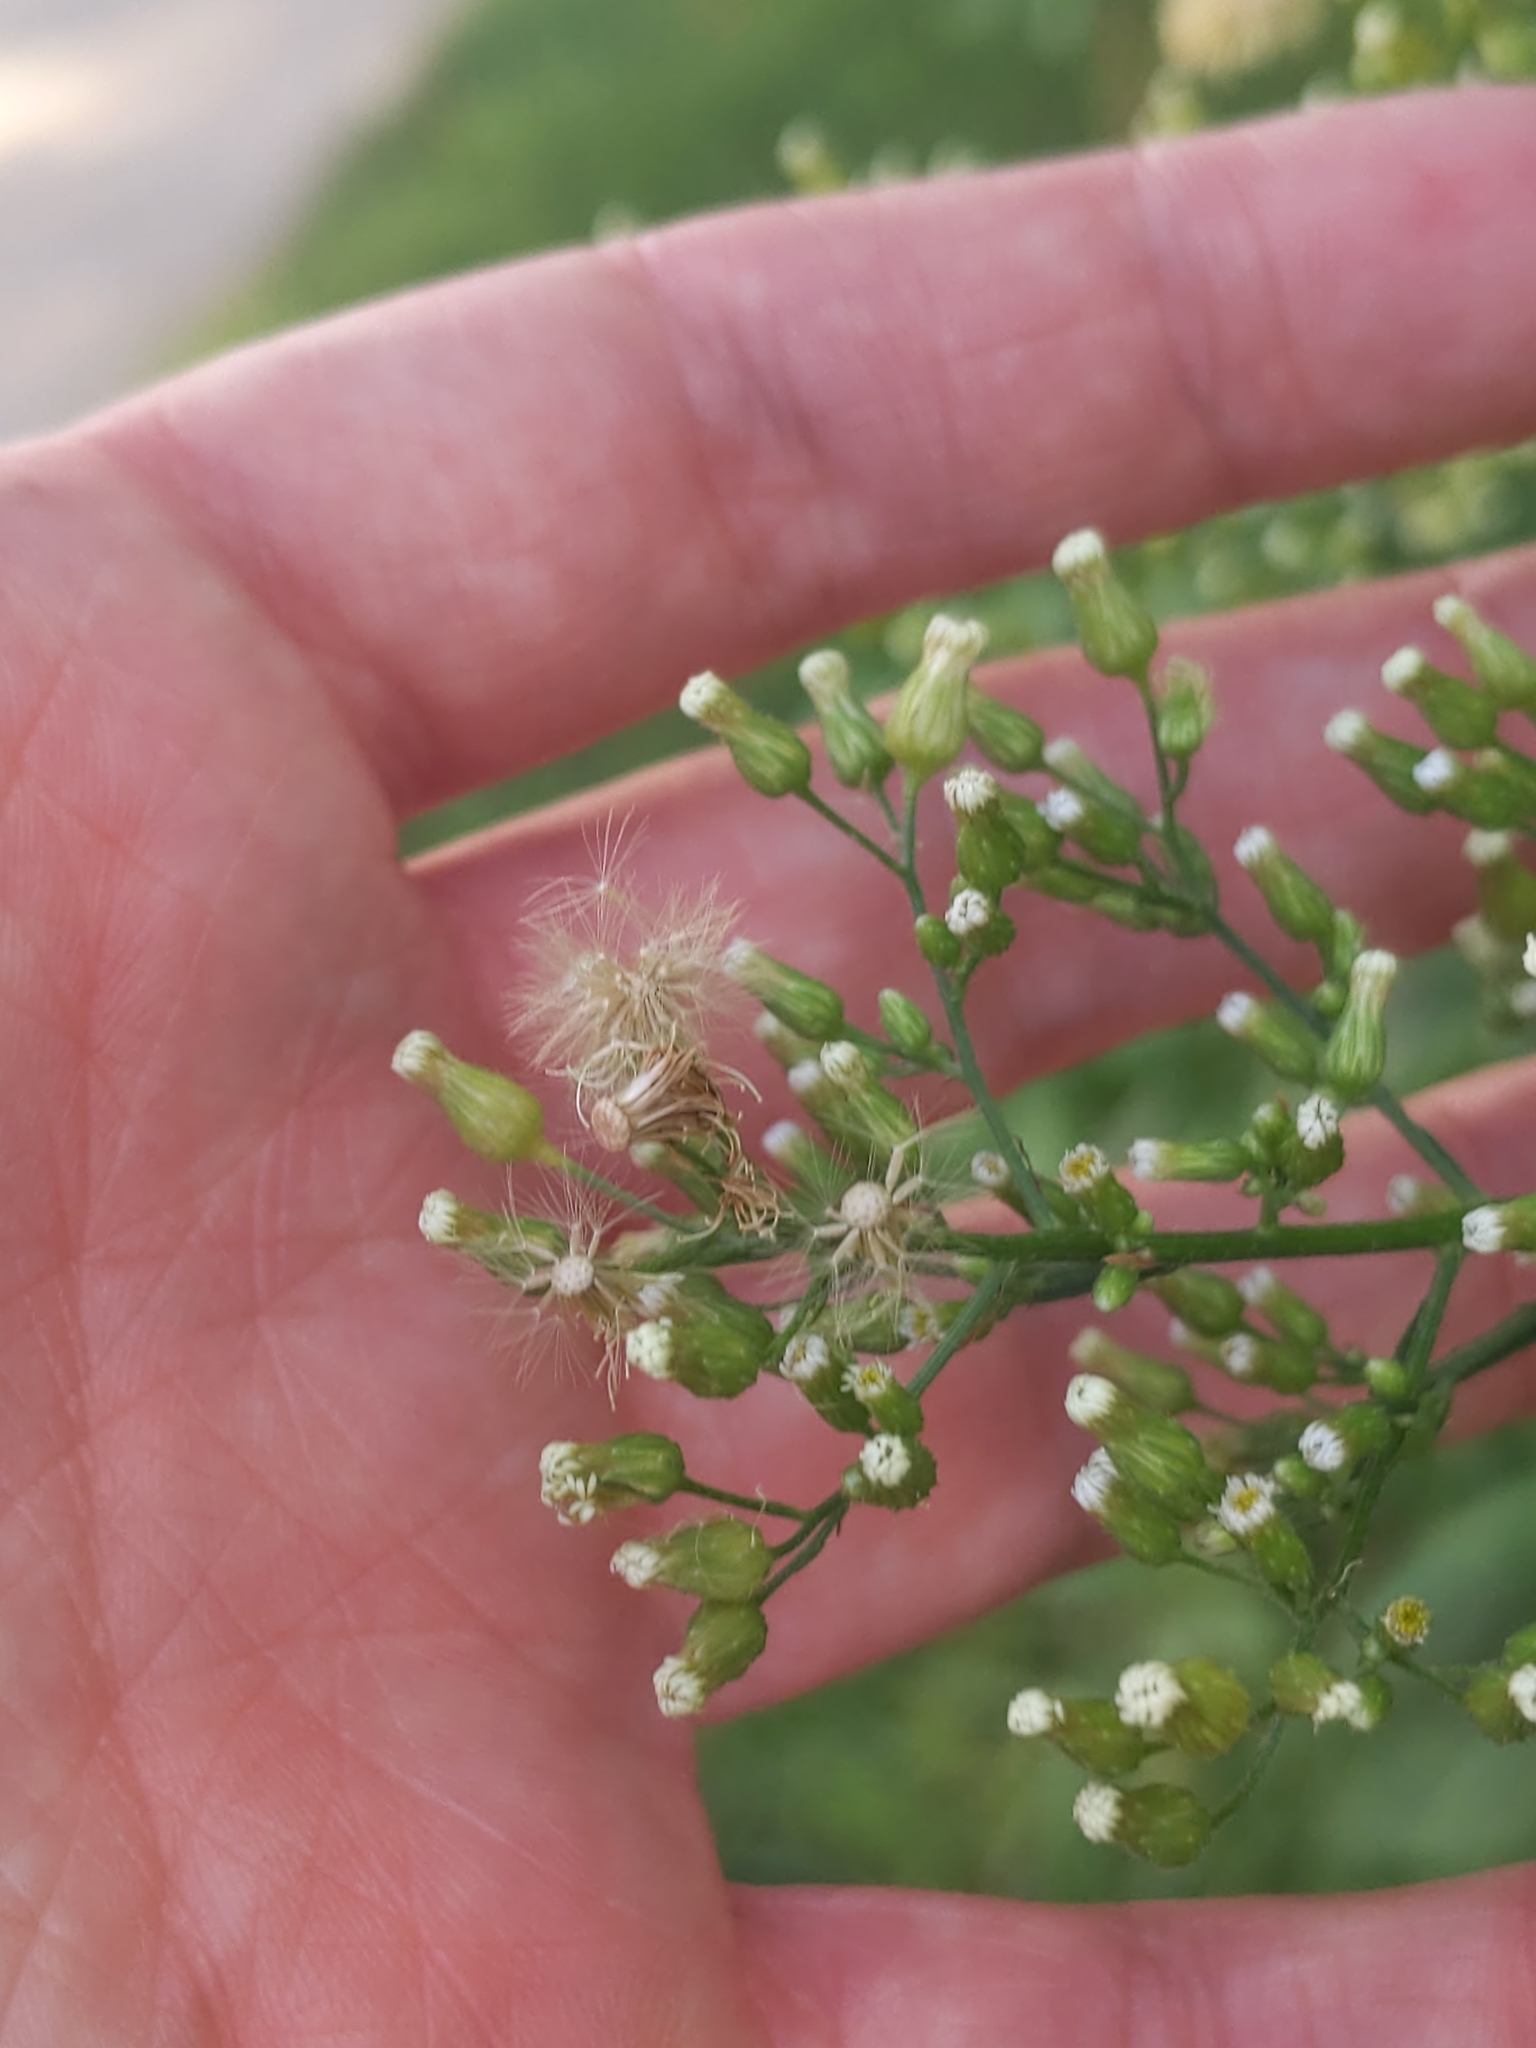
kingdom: Plantae
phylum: Tracheophyta
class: Magnoliopsida
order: Asterales
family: Asteraceae
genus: Erigeron
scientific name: Erigeron canadensis
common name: Canadian fleabane
